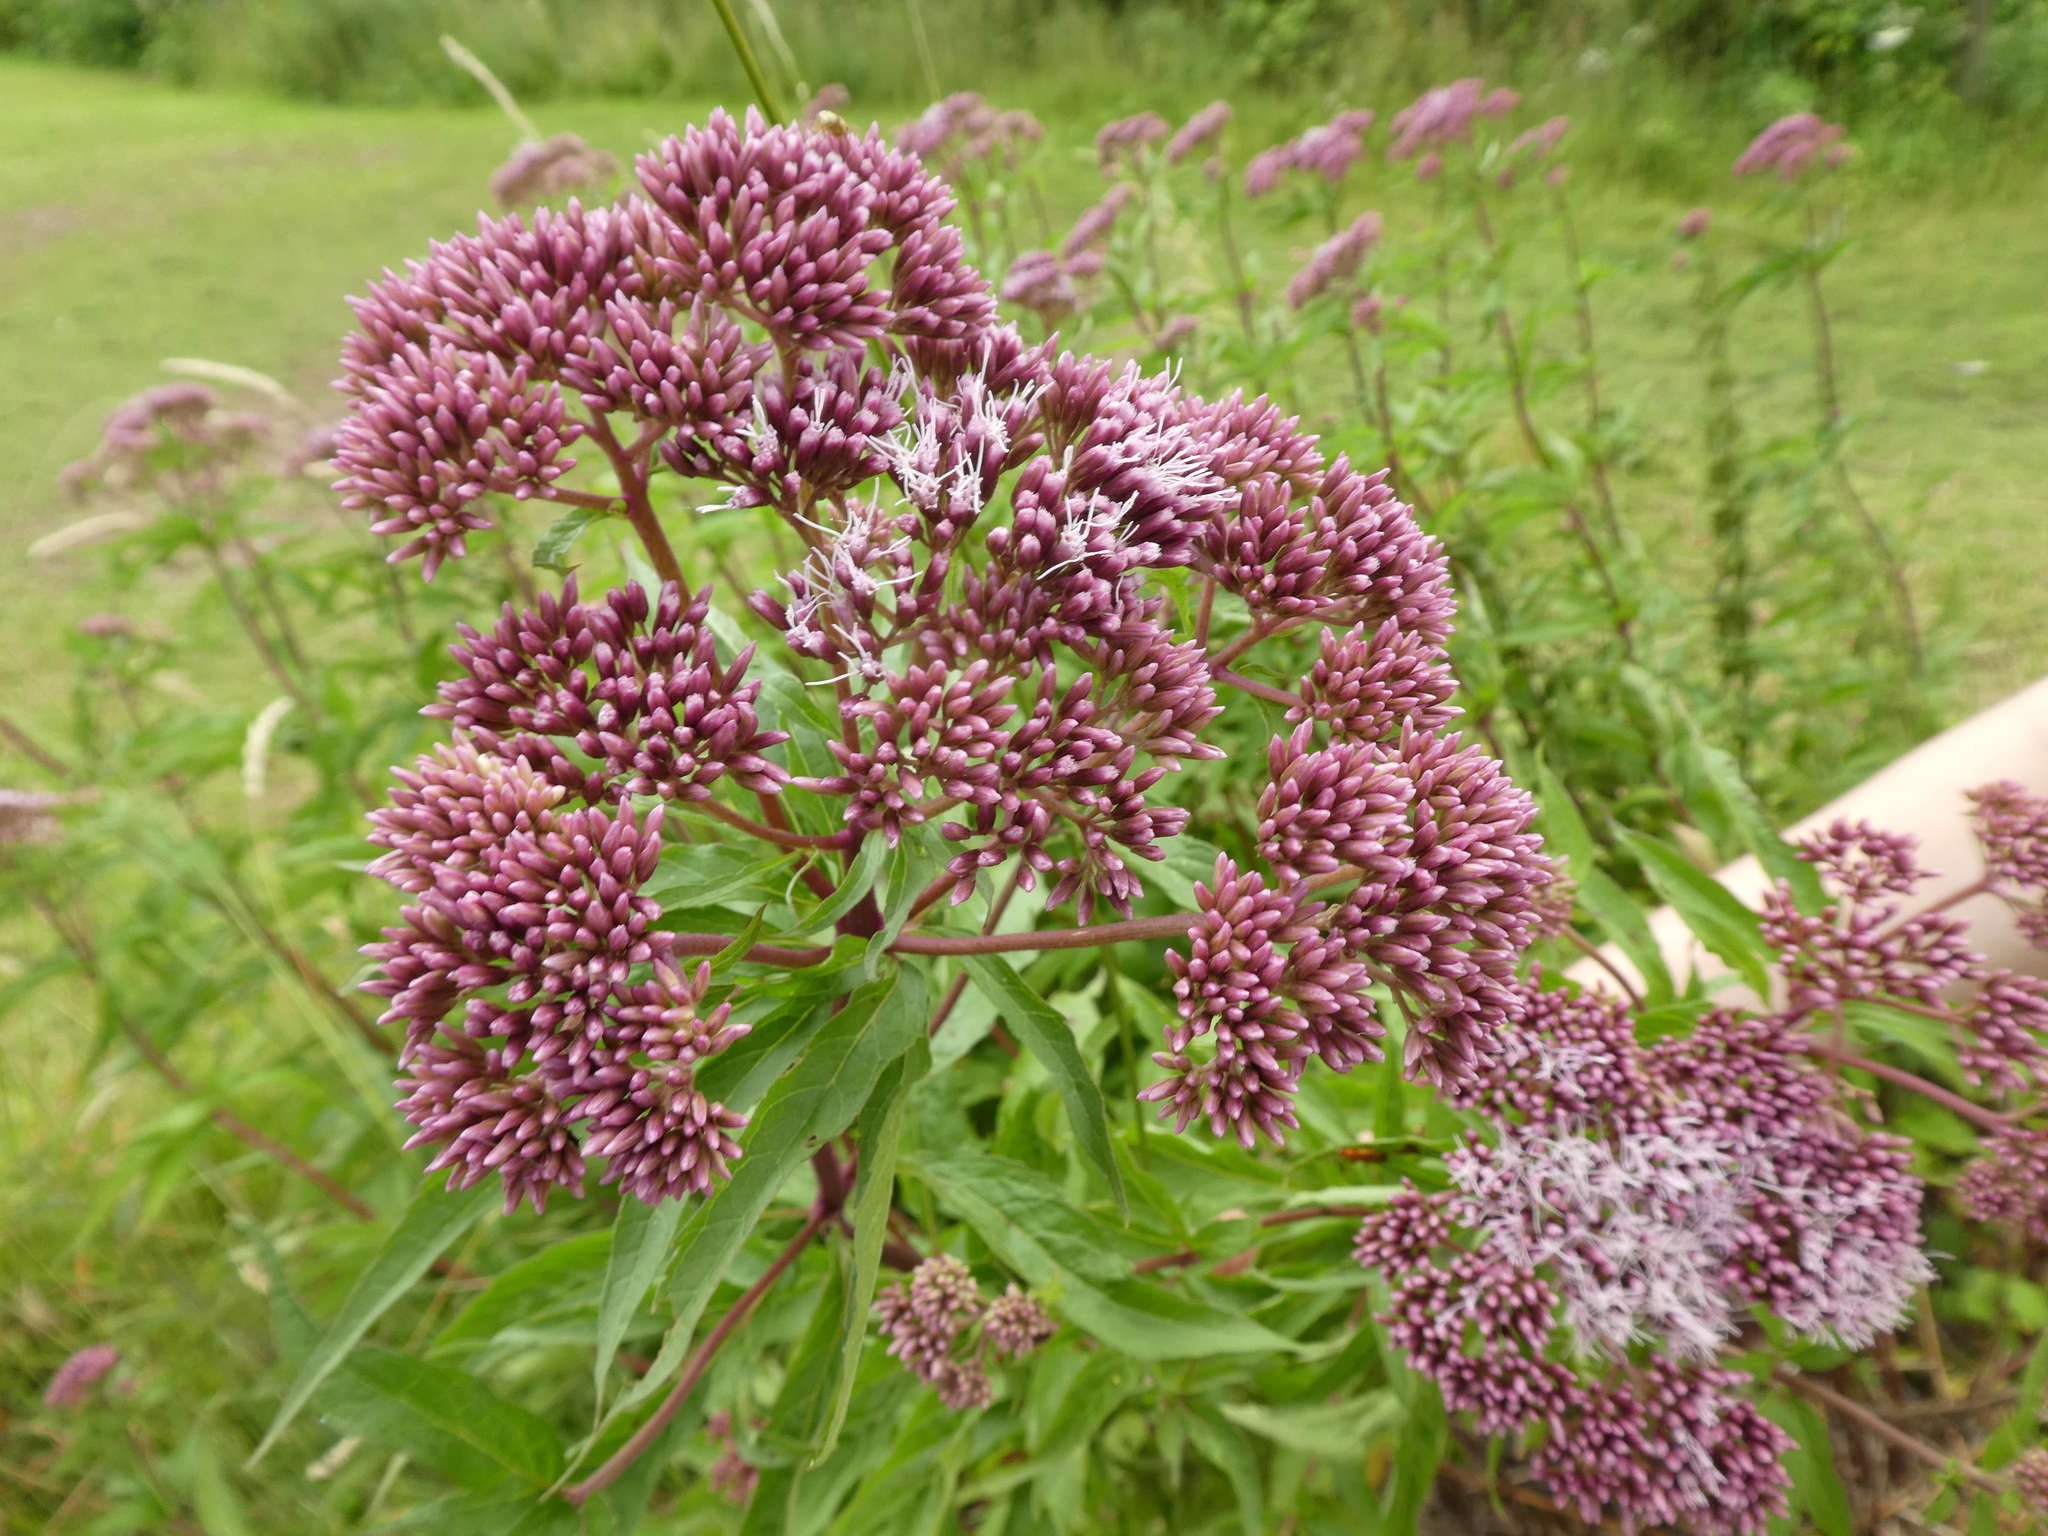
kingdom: Plantae
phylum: Tracheophyta
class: Magnoliopsida
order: Asterales
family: Asteraceae
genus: Eupatorium
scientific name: Eupatorium cannabinum
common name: Hemp-agrimony
